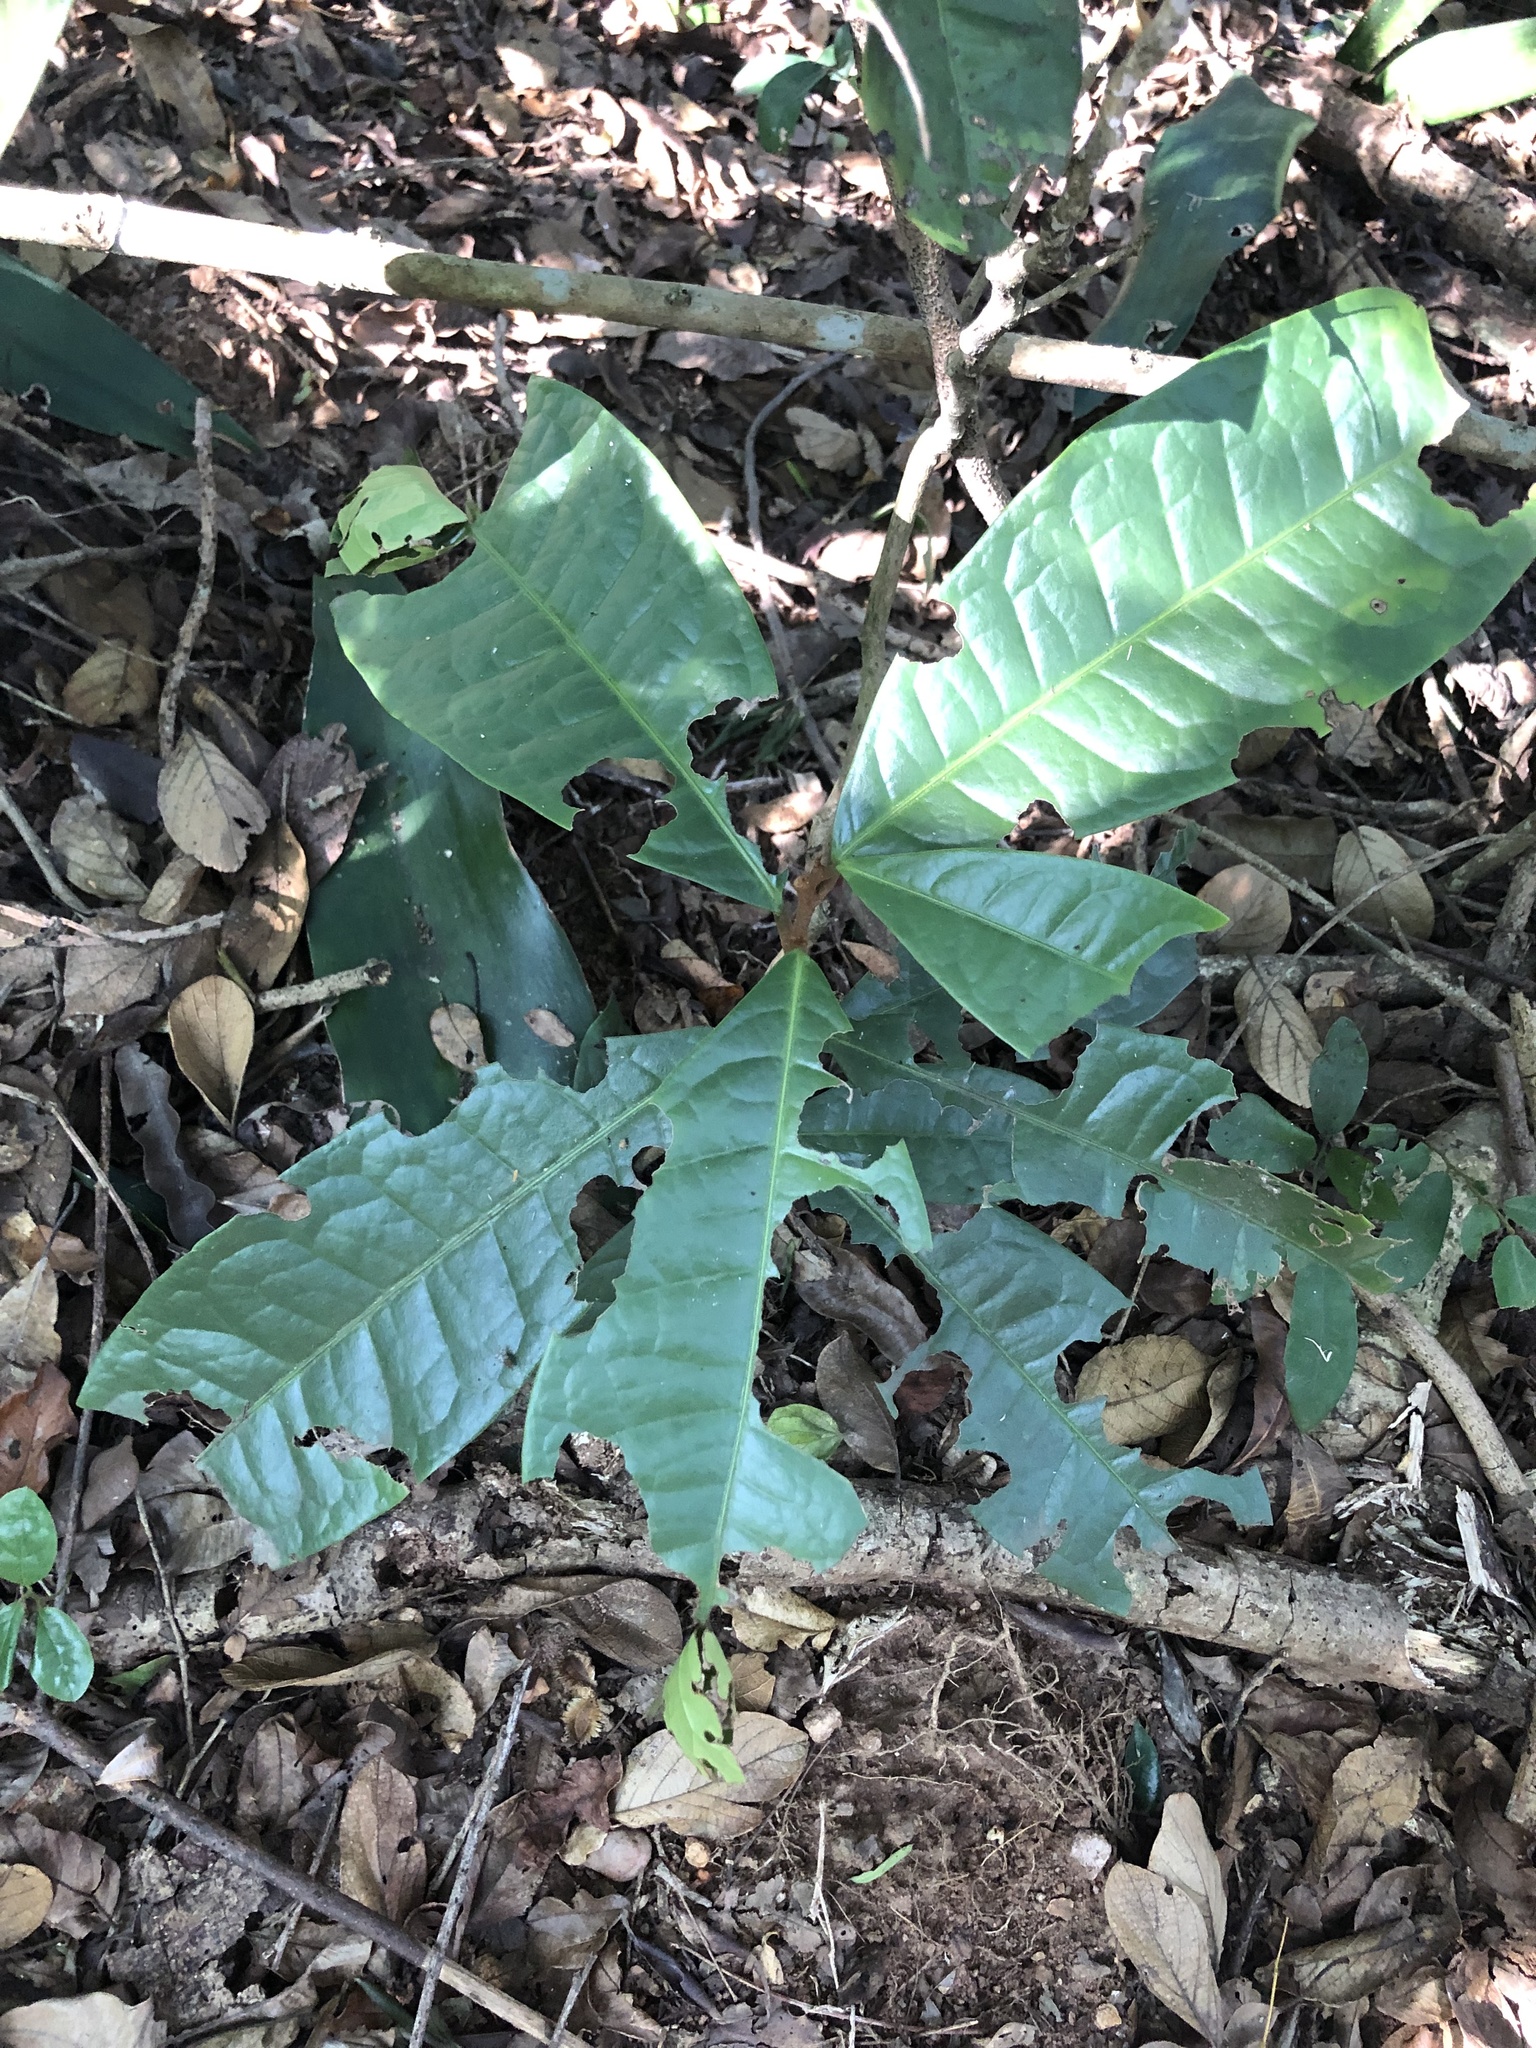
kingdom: Plantae
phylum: Tracheophyta
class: Magnoliopsida
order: Malpighiales
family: Malpighiaceae
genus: Acridocarpus
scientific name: Acridocarpus natalitius
